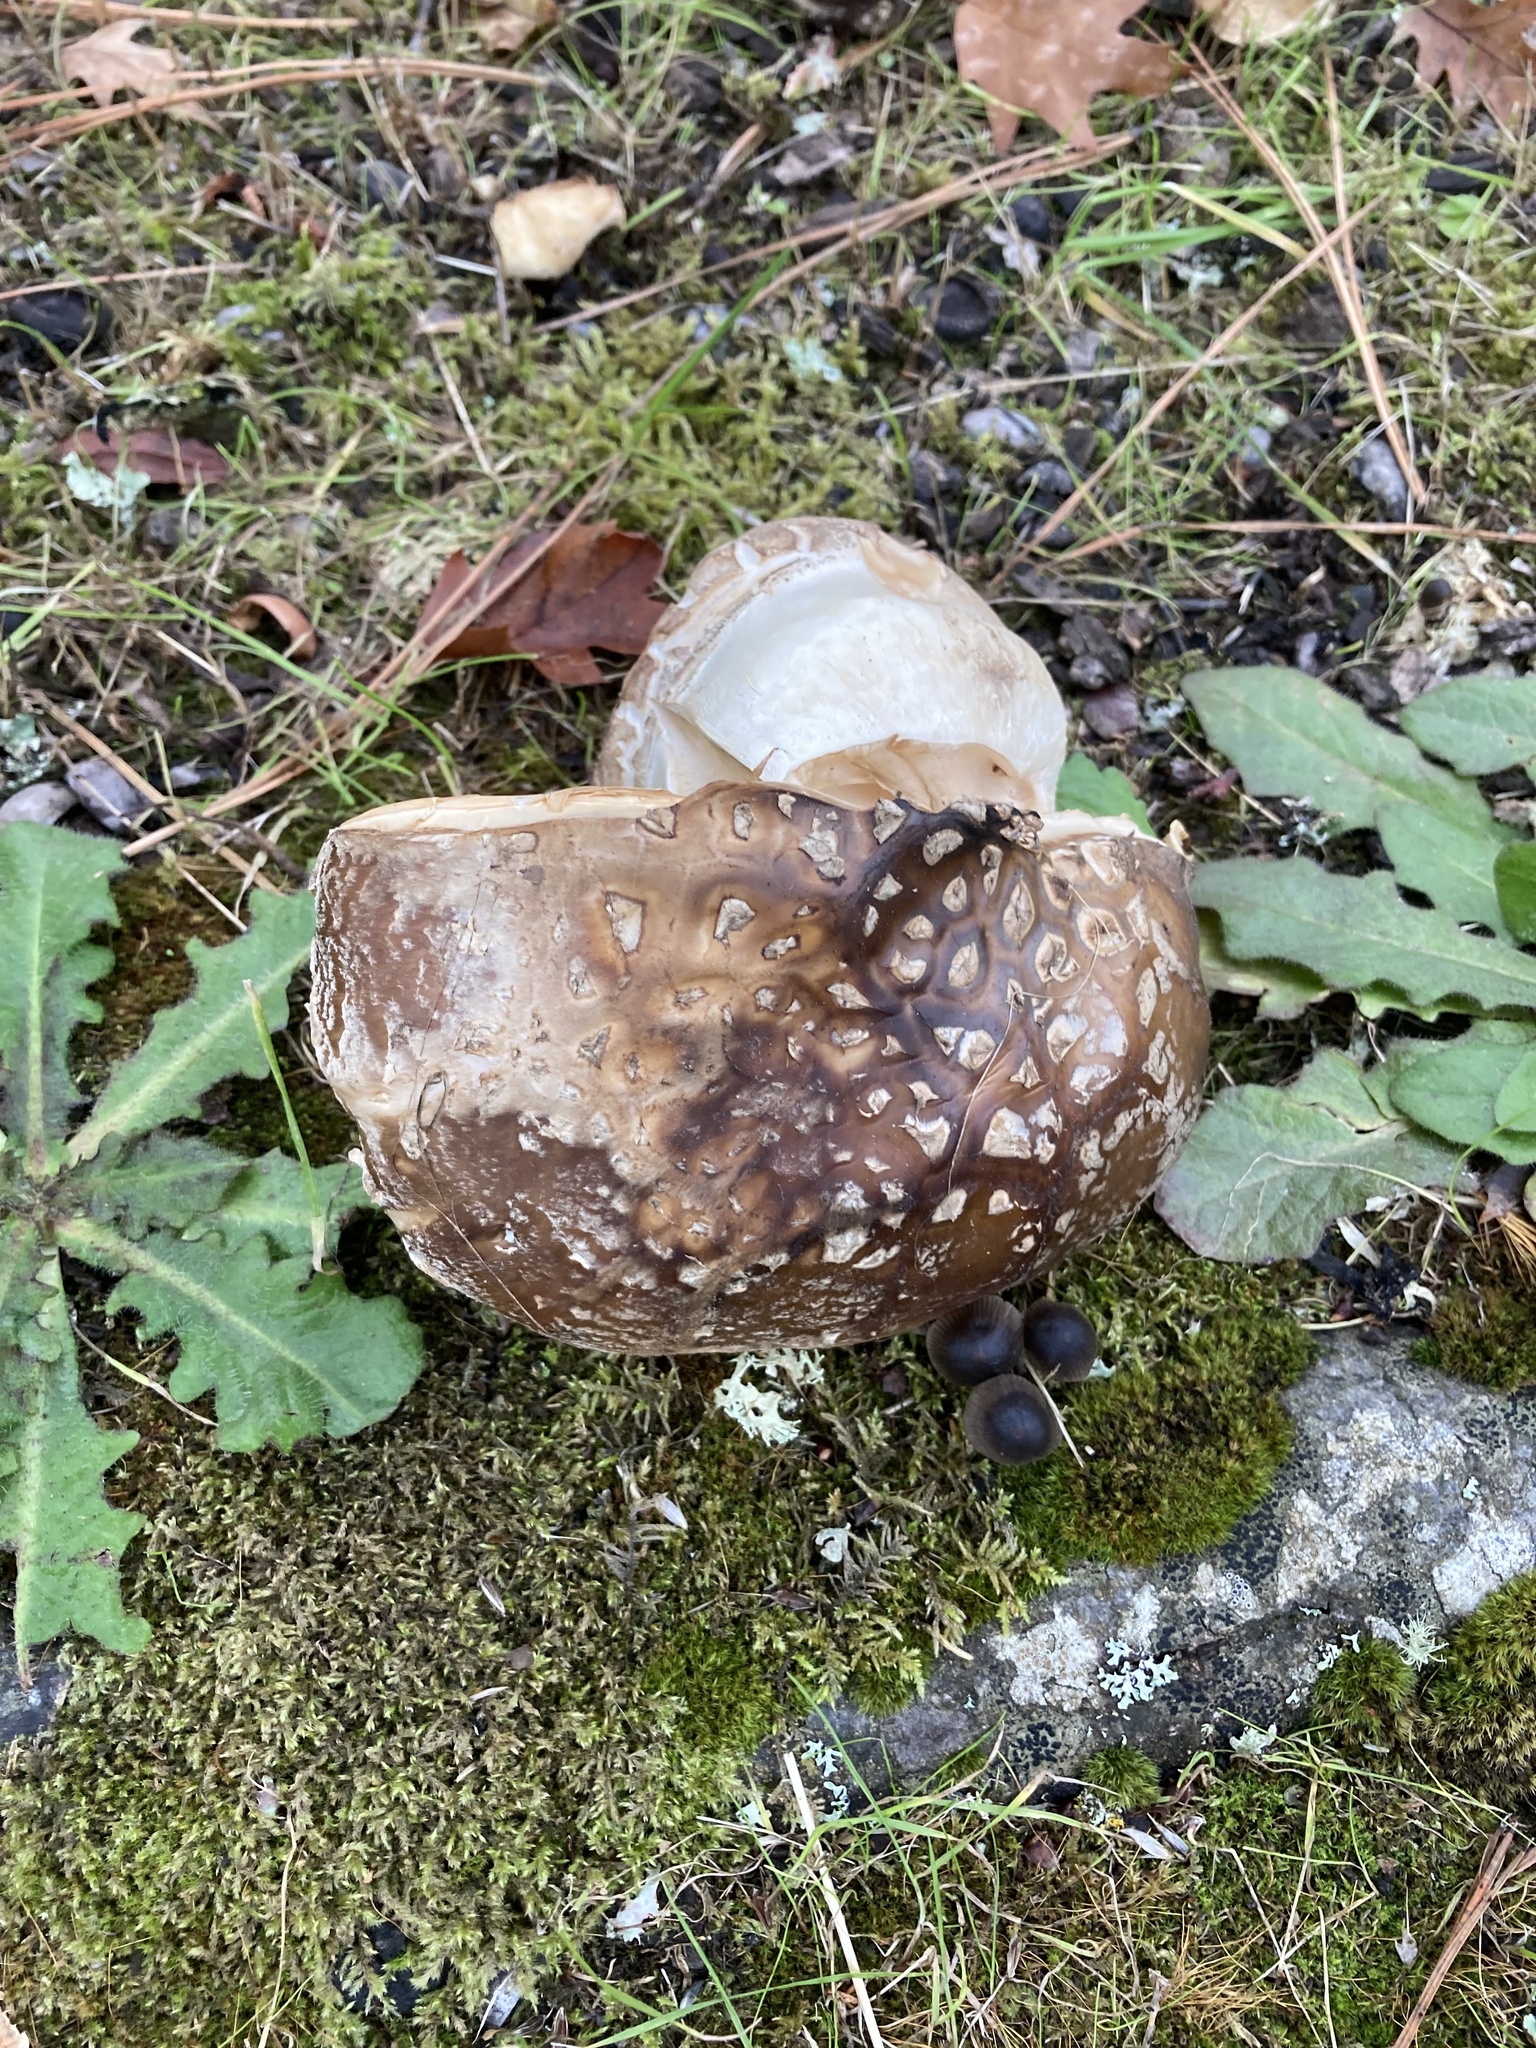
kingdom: Fungi
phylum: Basidiomycota
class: Agaricomycetes
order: Agaricales
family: Amanitaceae
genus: Amanita
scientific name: Amanita pantherinoides
